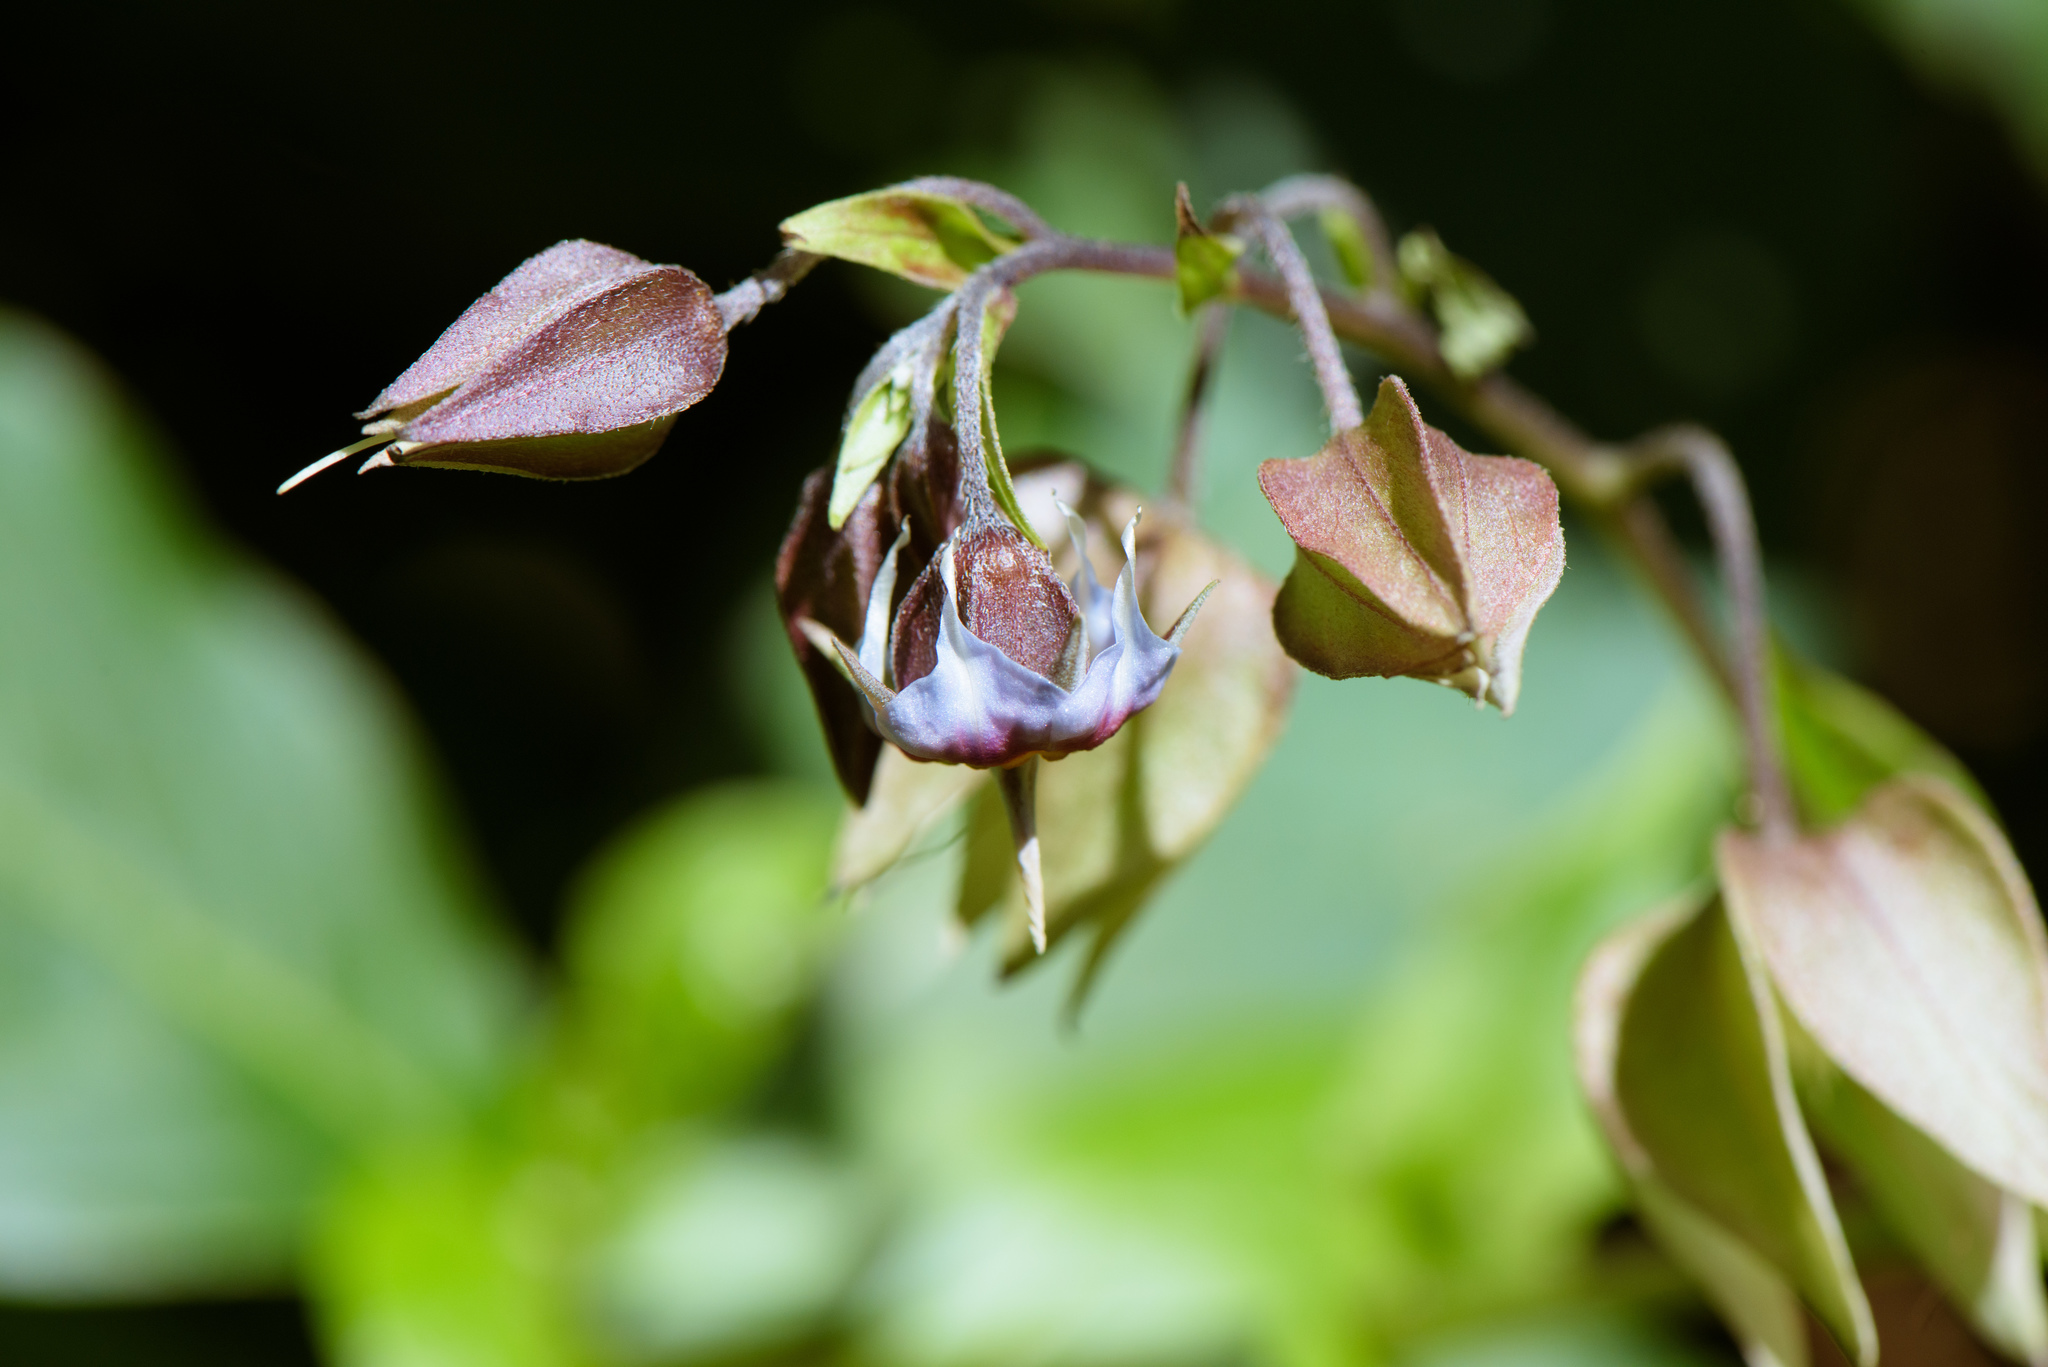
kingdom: Plantae
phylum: Tracheophyta
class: Magnoliopsida
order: Boraginales
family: Boraginaceae
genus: Trichodesma
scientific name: Trichodesma calycosum
